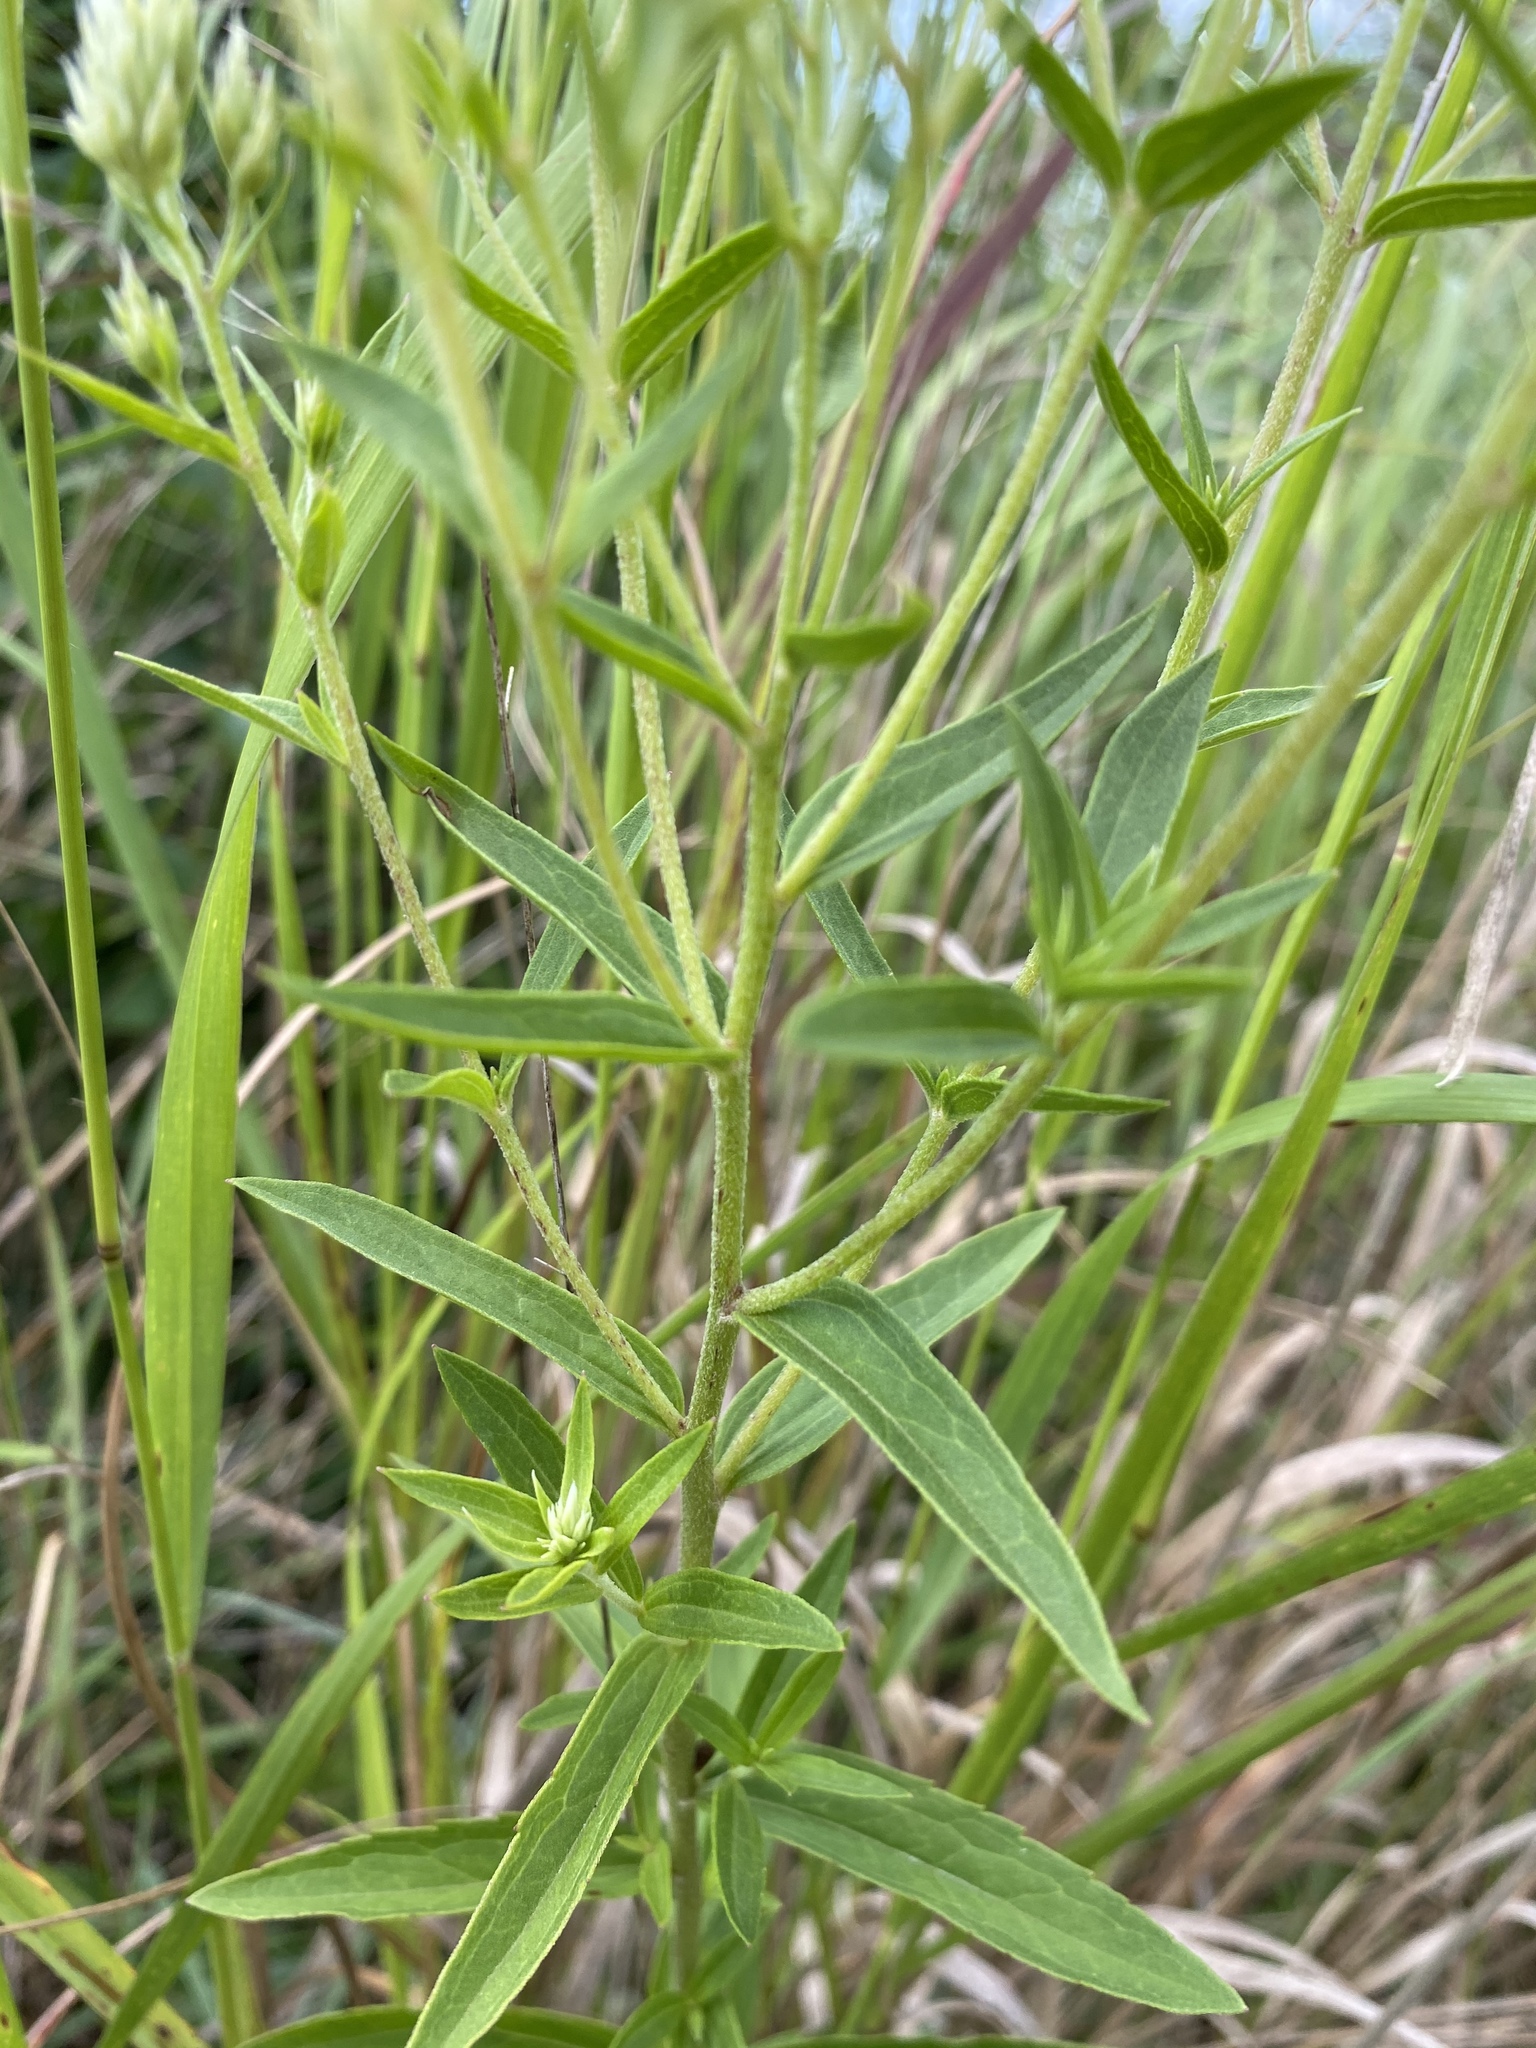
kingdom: Plantae
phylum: Tracheophyta
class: Magnoliopsida
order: Asterales
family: Asteraceae
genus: Eupatorium
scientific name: Eupatorium subvenosum
